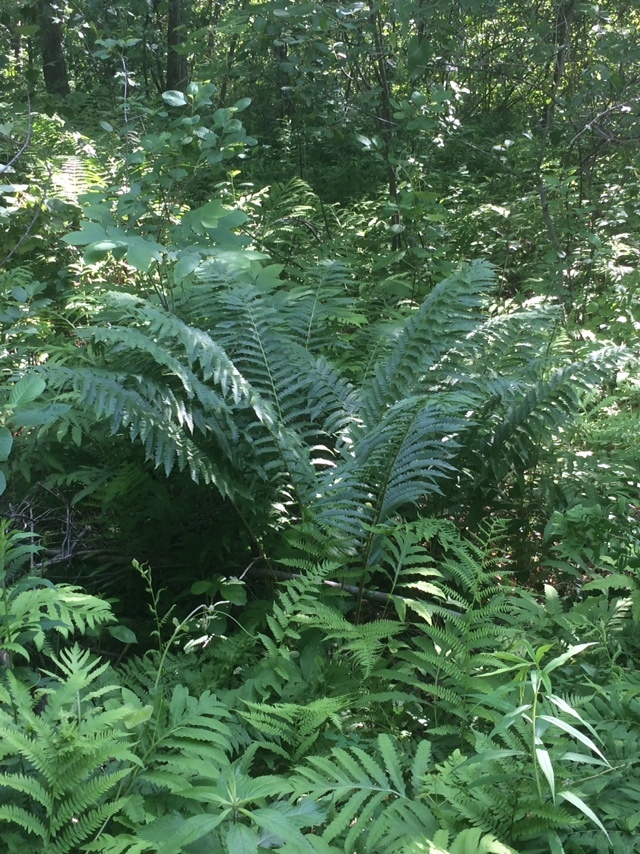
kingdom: Plantae
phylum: Tracheophyta
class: Polypodiopsida
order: Polypodiales
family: Onocleaceae
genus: Matteuccia
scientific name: Matteuccia struthiopteris
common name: Ostrich fern
